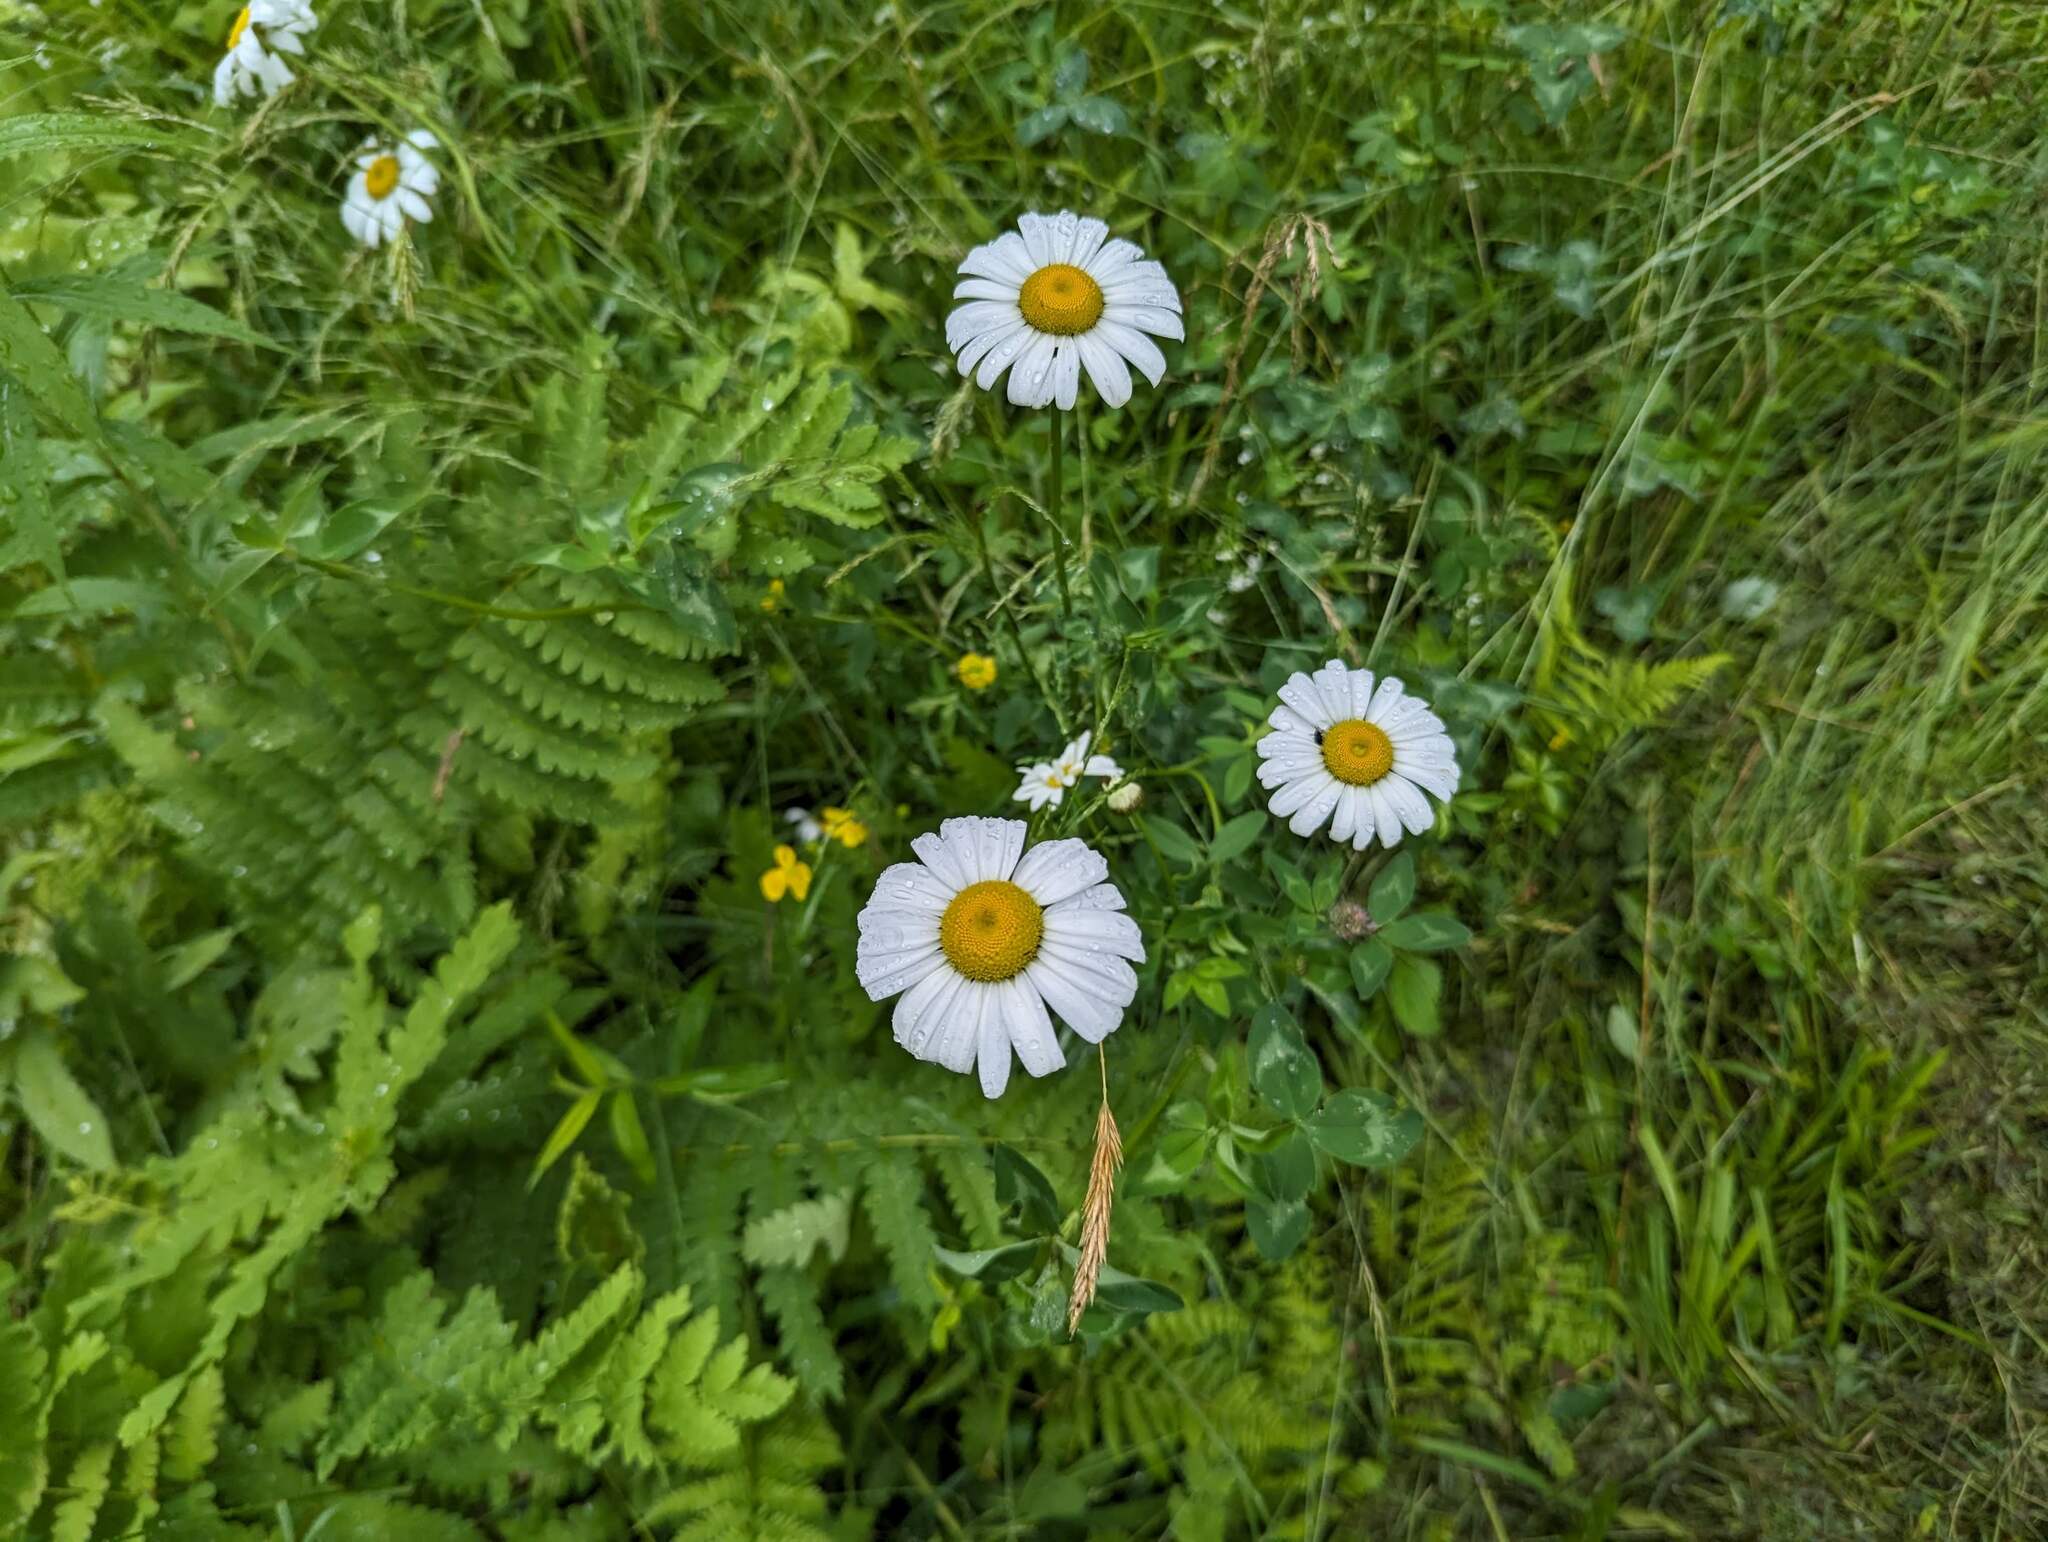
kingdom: Plantae
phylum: Tracheophyta
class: Magnoliopsida
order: Asterales
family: Asteraceae
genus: Leucanthemum
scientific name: Leucanthemum vulgare
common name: Oxeye daisy
